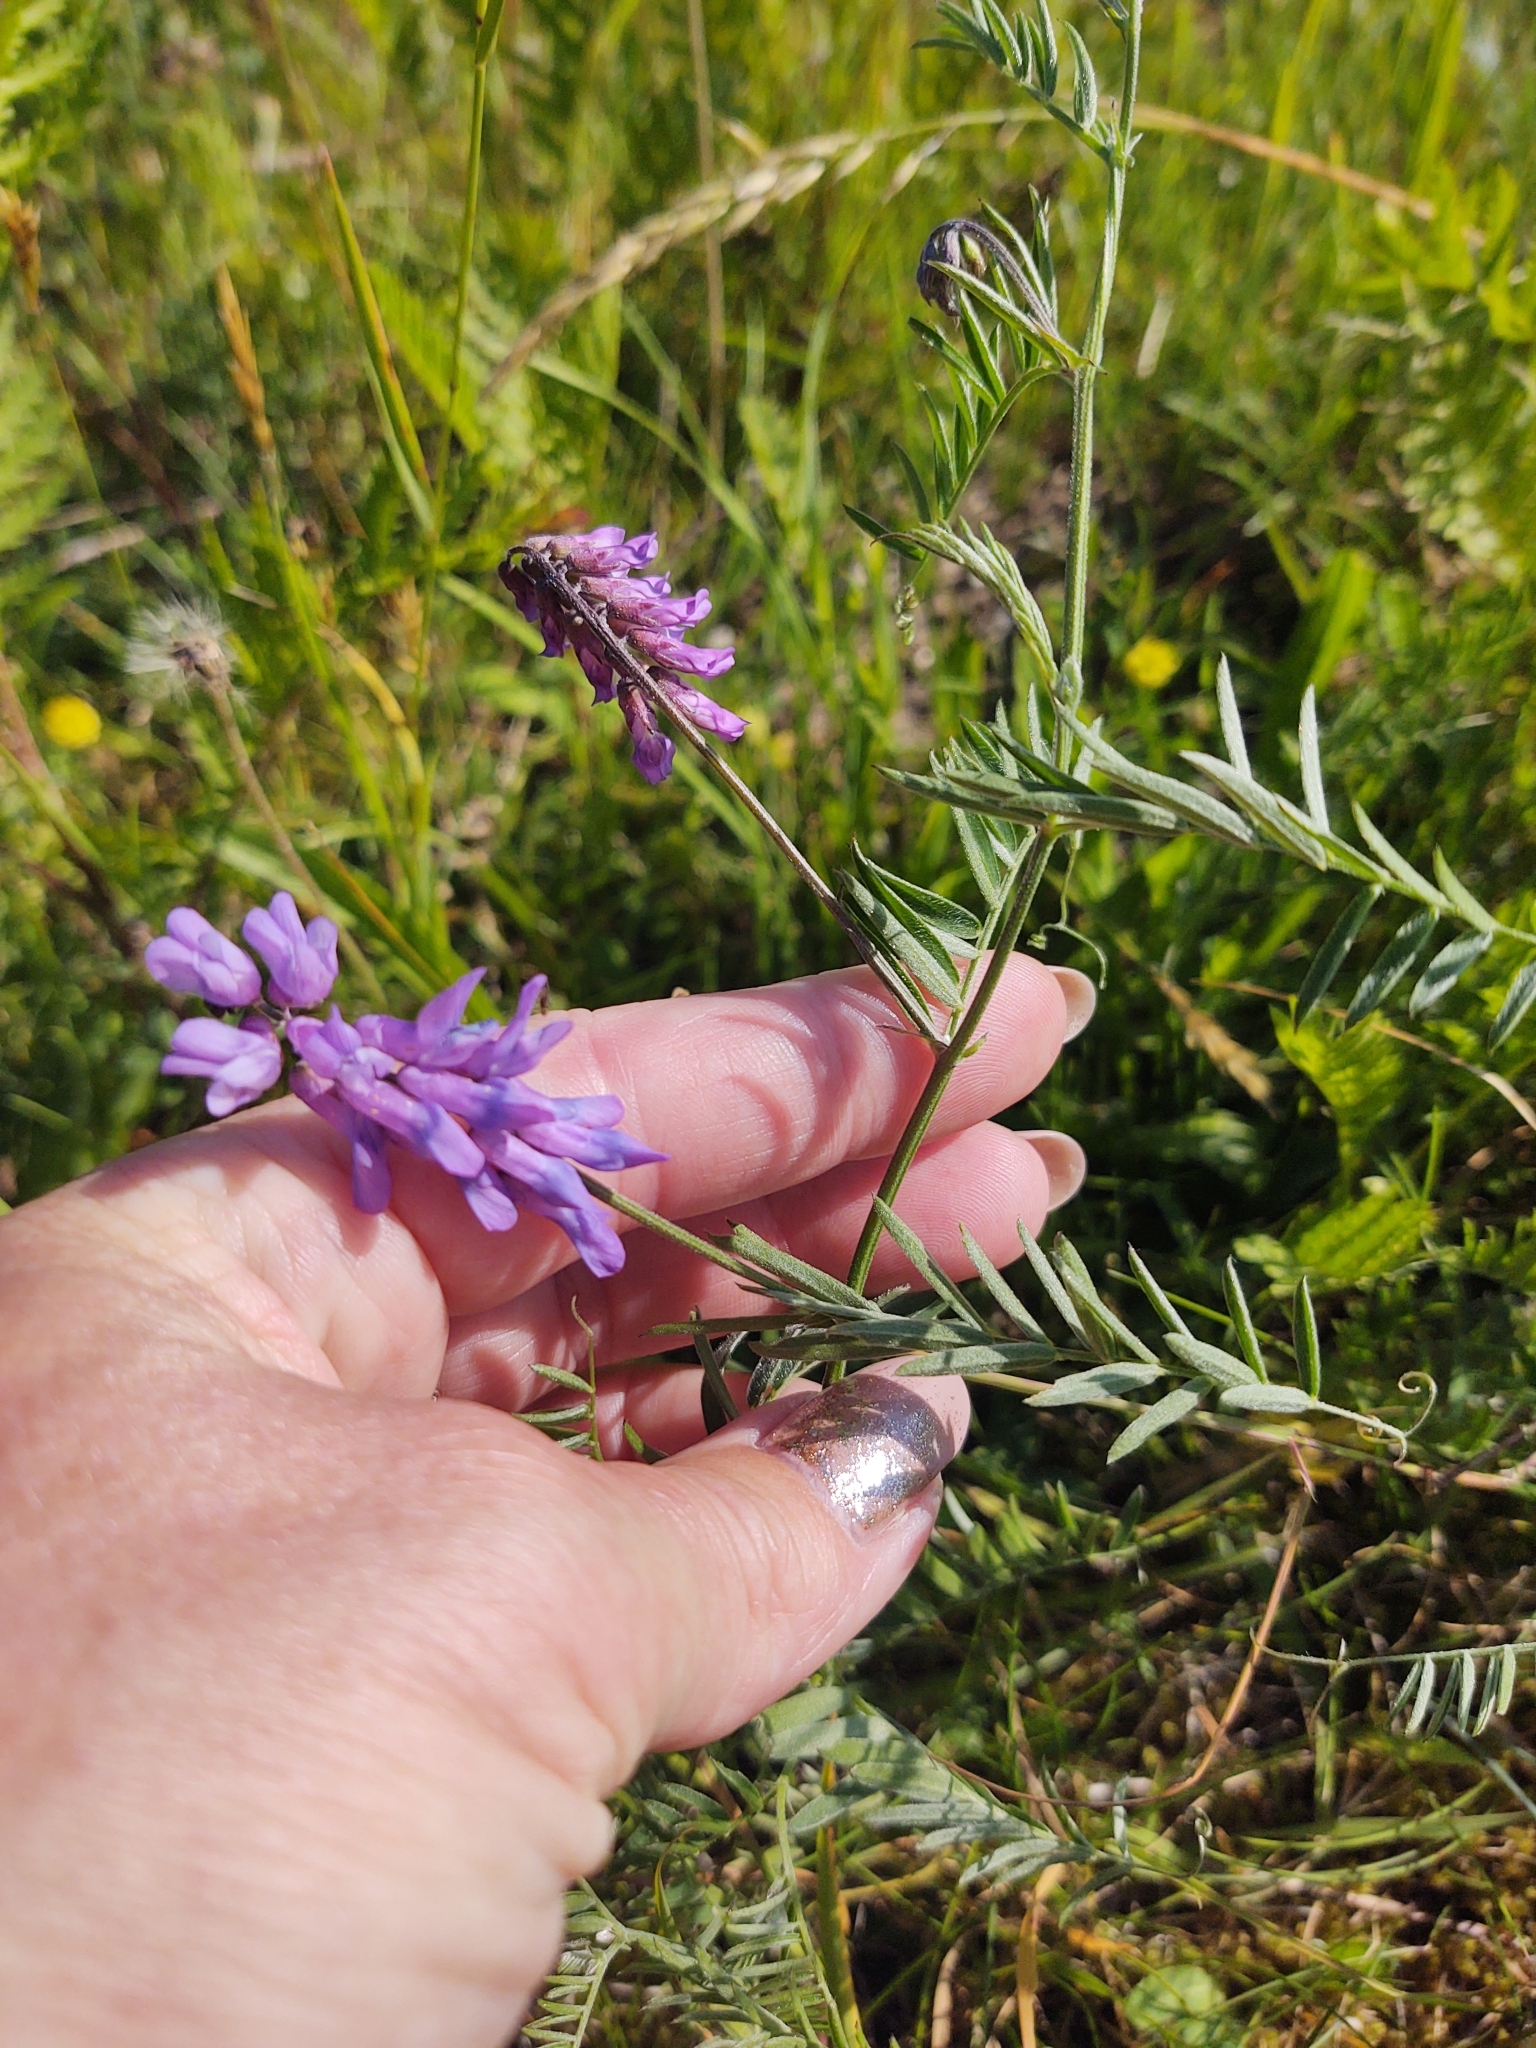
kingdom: Plantae
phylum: Tracheophyta
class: Magnoliopsida
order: Fabales
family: Fabaceae
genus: Vicia
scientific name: Vicia cracca
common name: Bird vetch
